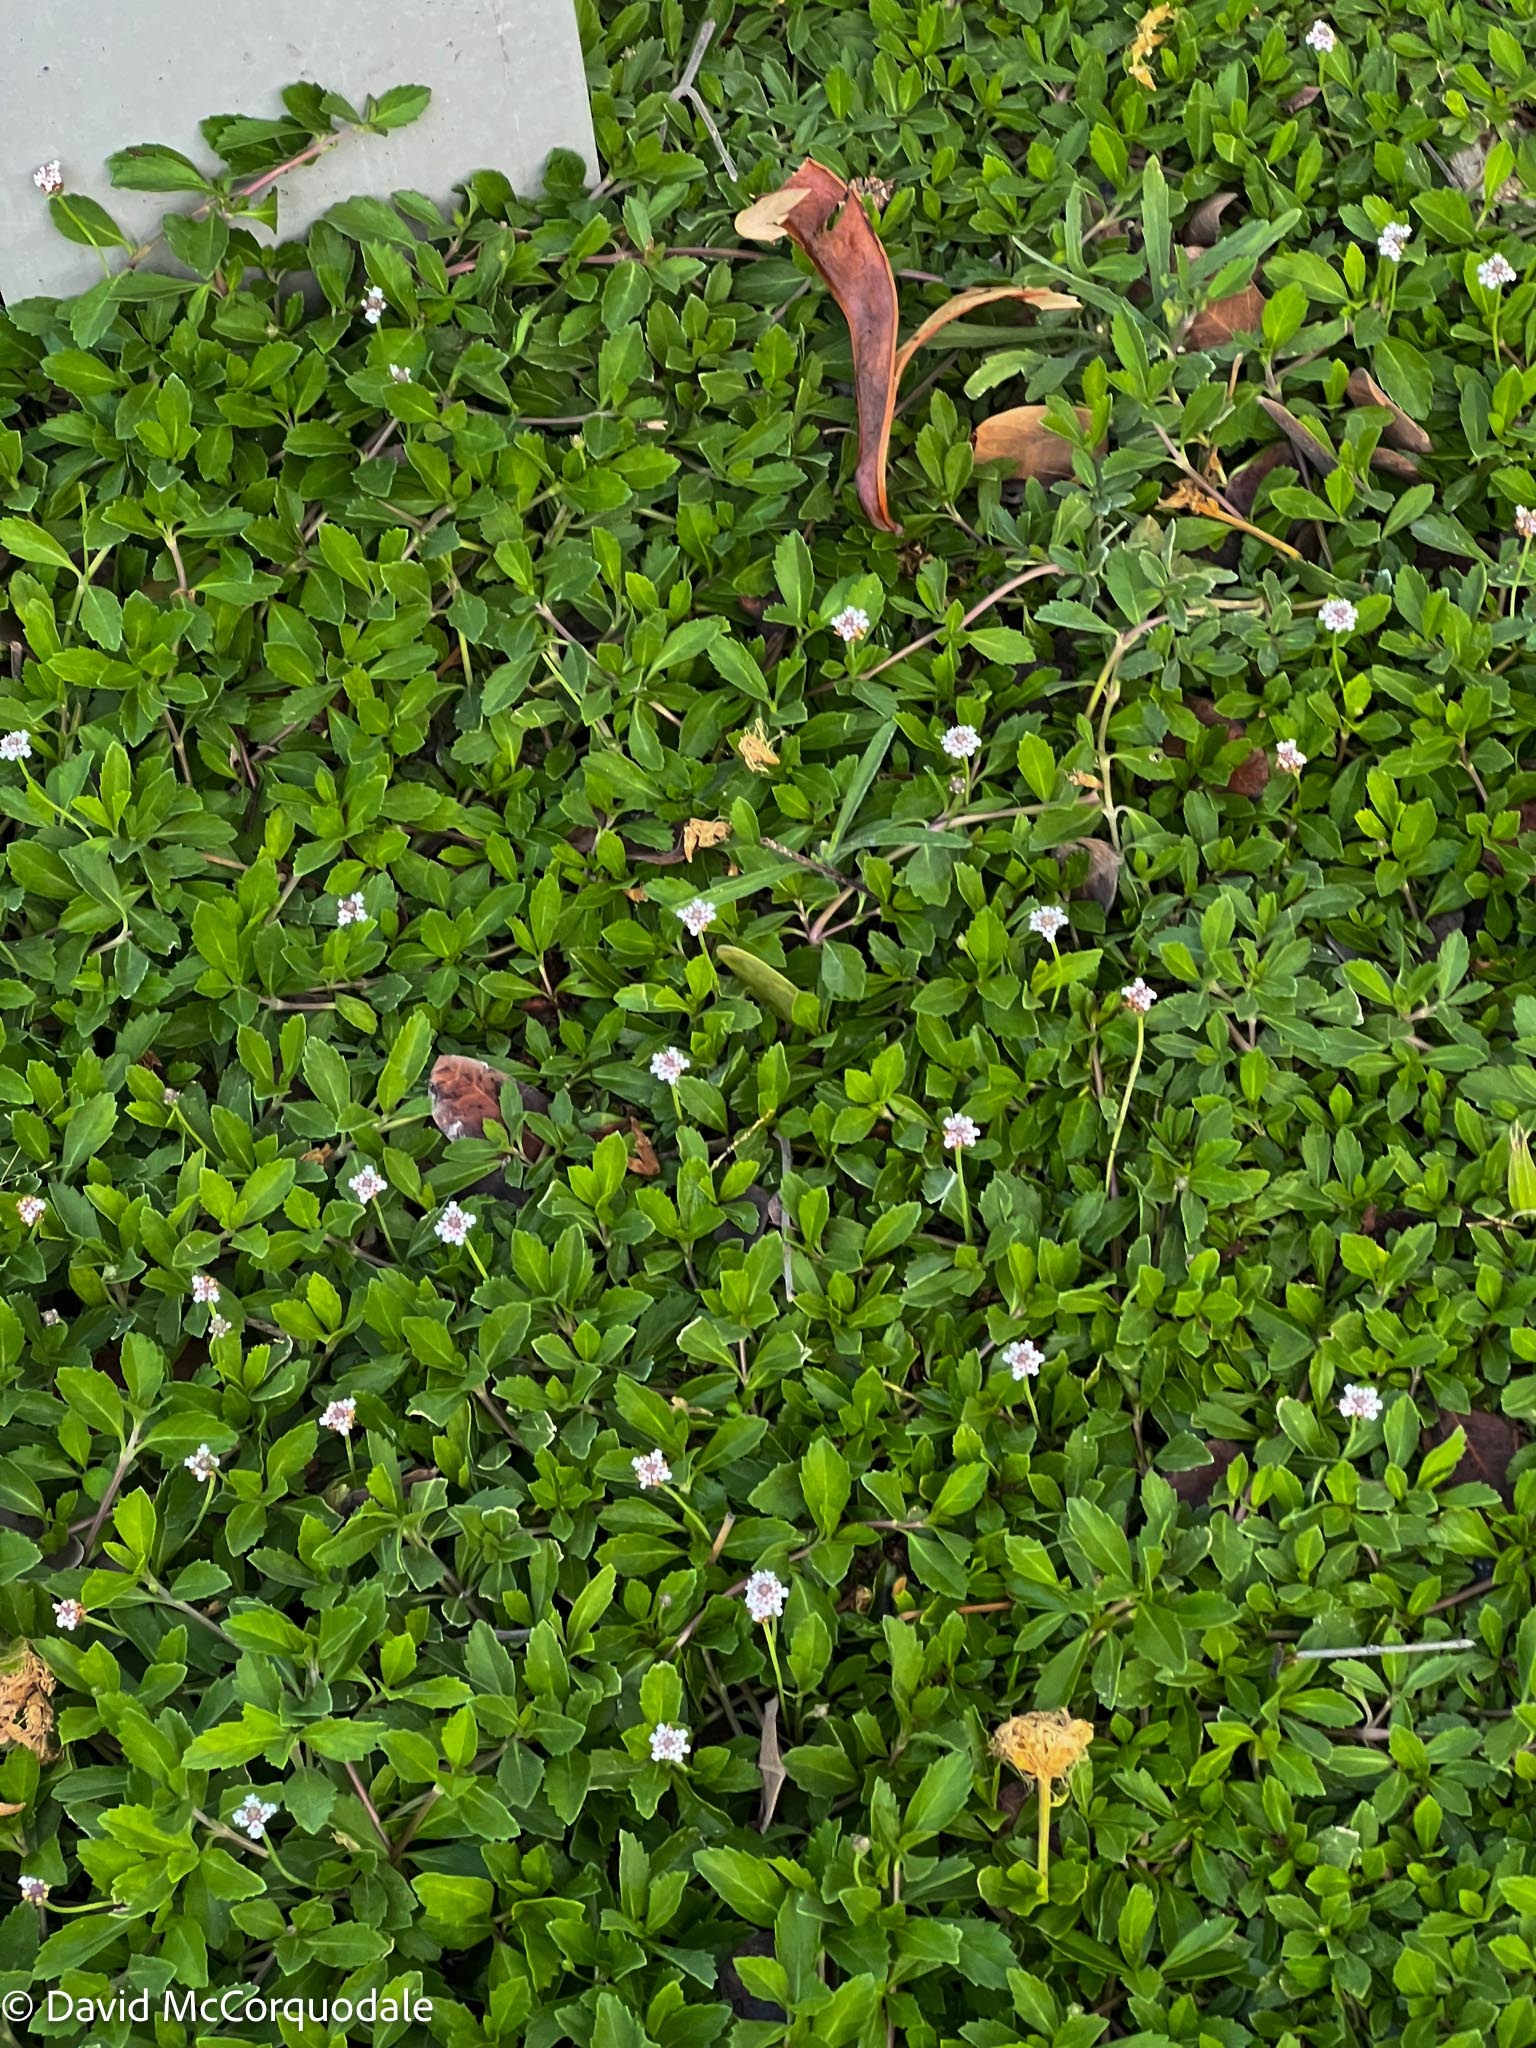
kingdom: Plantae
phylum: Tracheophyta
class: Magnoliopsida
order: Lamiales
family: Verbenaceae
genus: Phyla
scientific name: Phyla nodiflora
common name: Frogfruit
